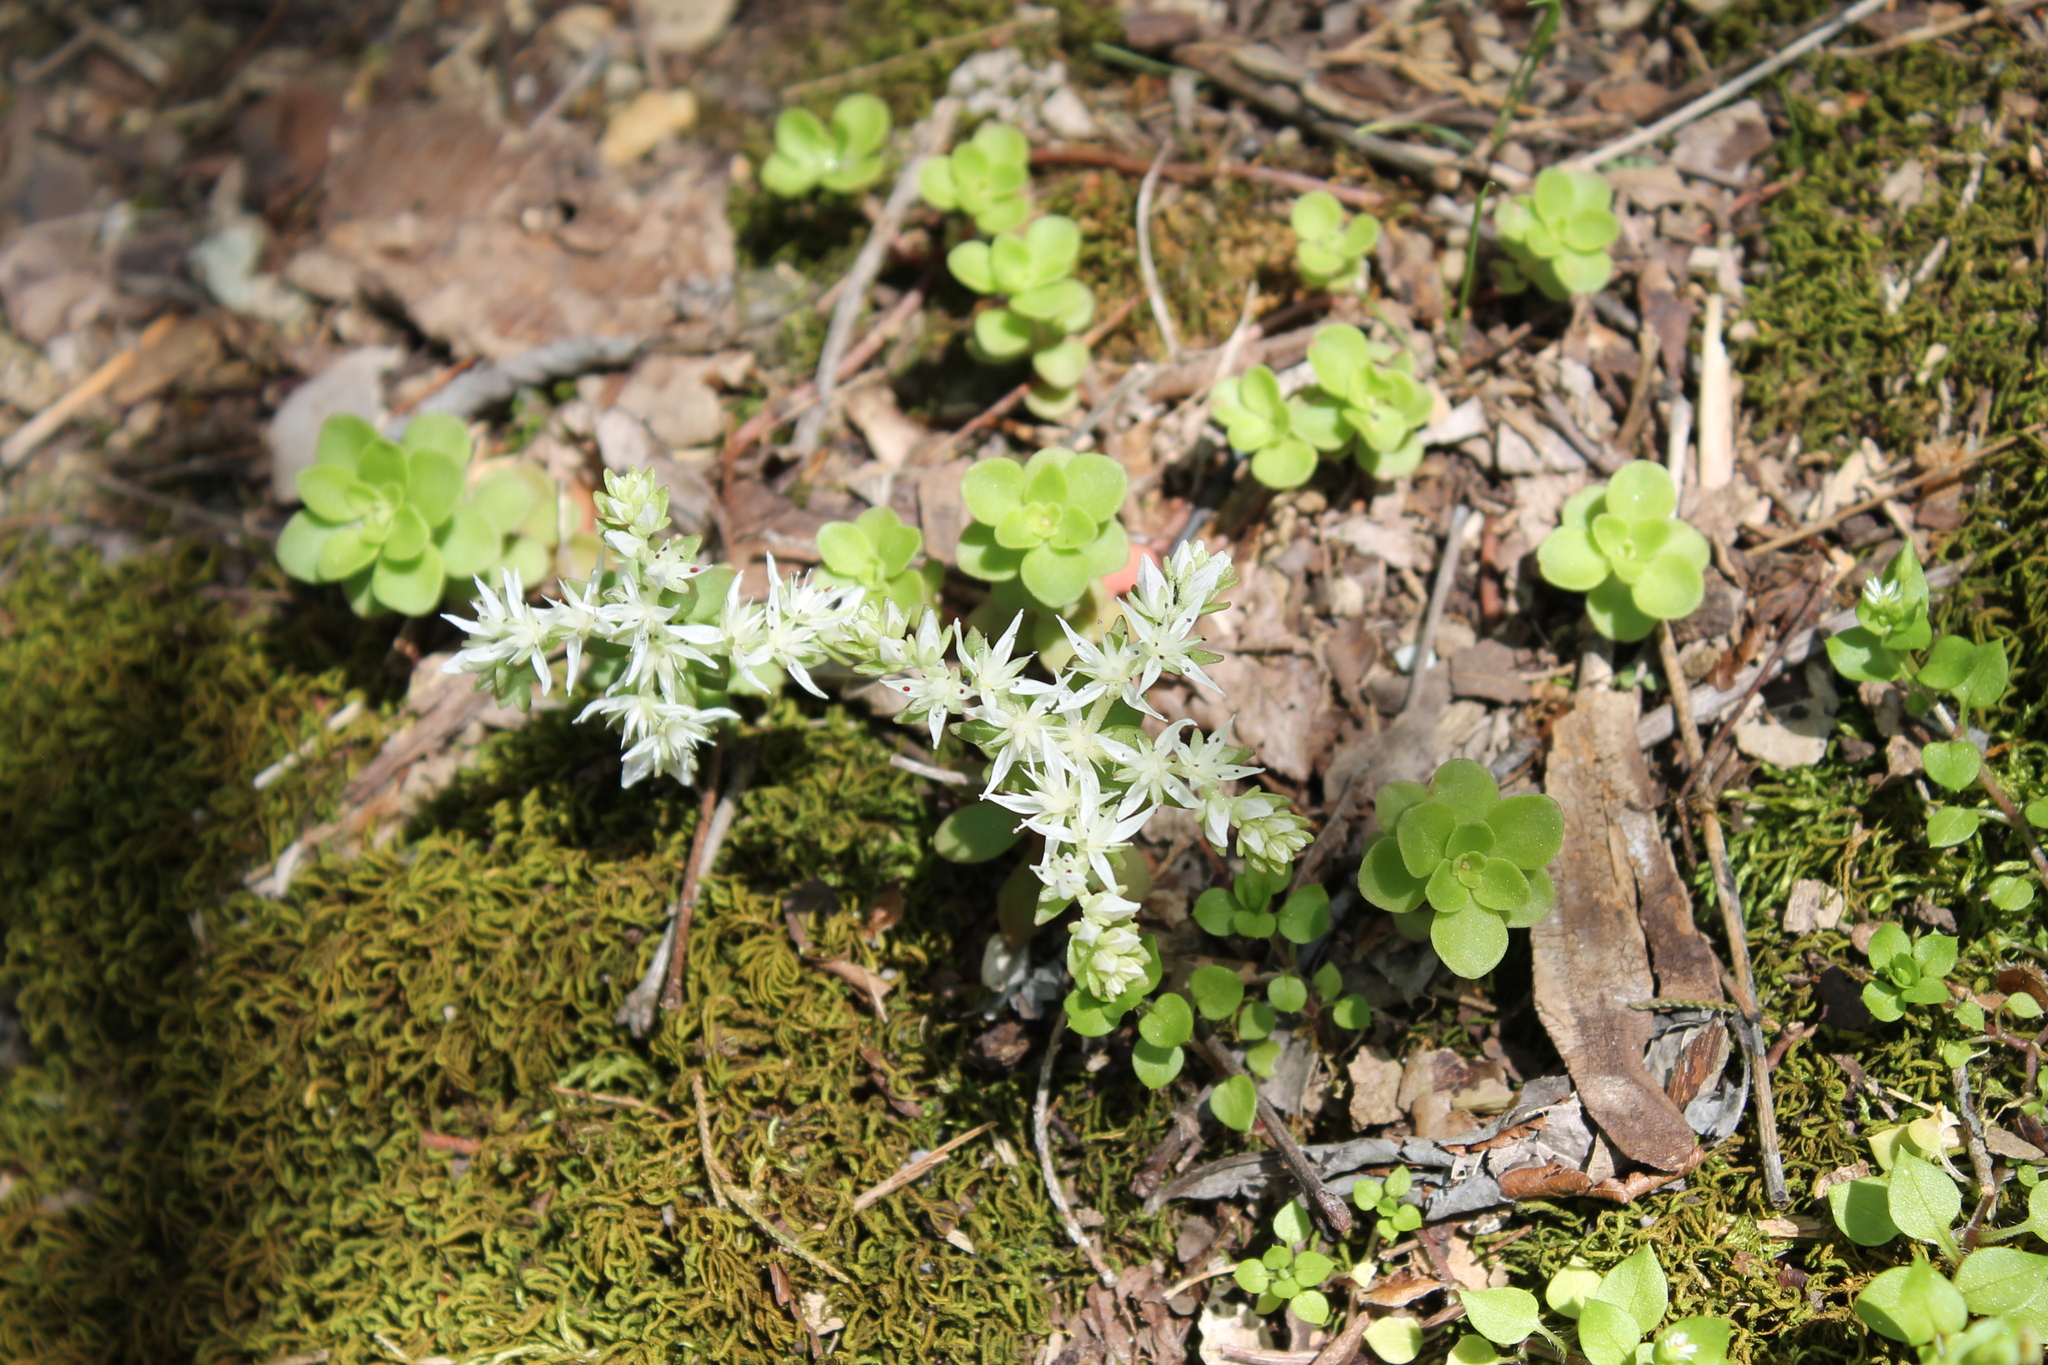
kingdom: Plantae
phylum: Tracheophyta
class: Magnoliopsida
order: Saxifragales
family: Crassulaceae
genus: Sedum
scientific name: Sedum ternatum
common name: Wild stonecrop
